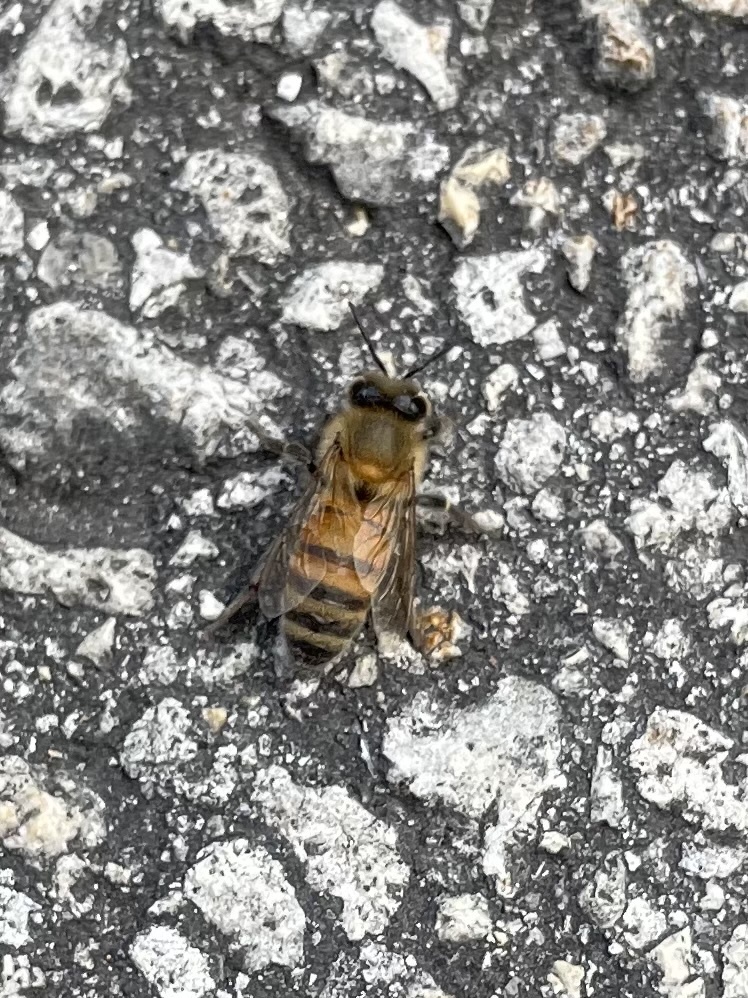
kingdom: Animalia
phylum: Arthropoda
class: Insecta
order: Hymenoptera
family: Apidae
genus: Apis
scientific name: Apis mellifera
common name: Honey bee
